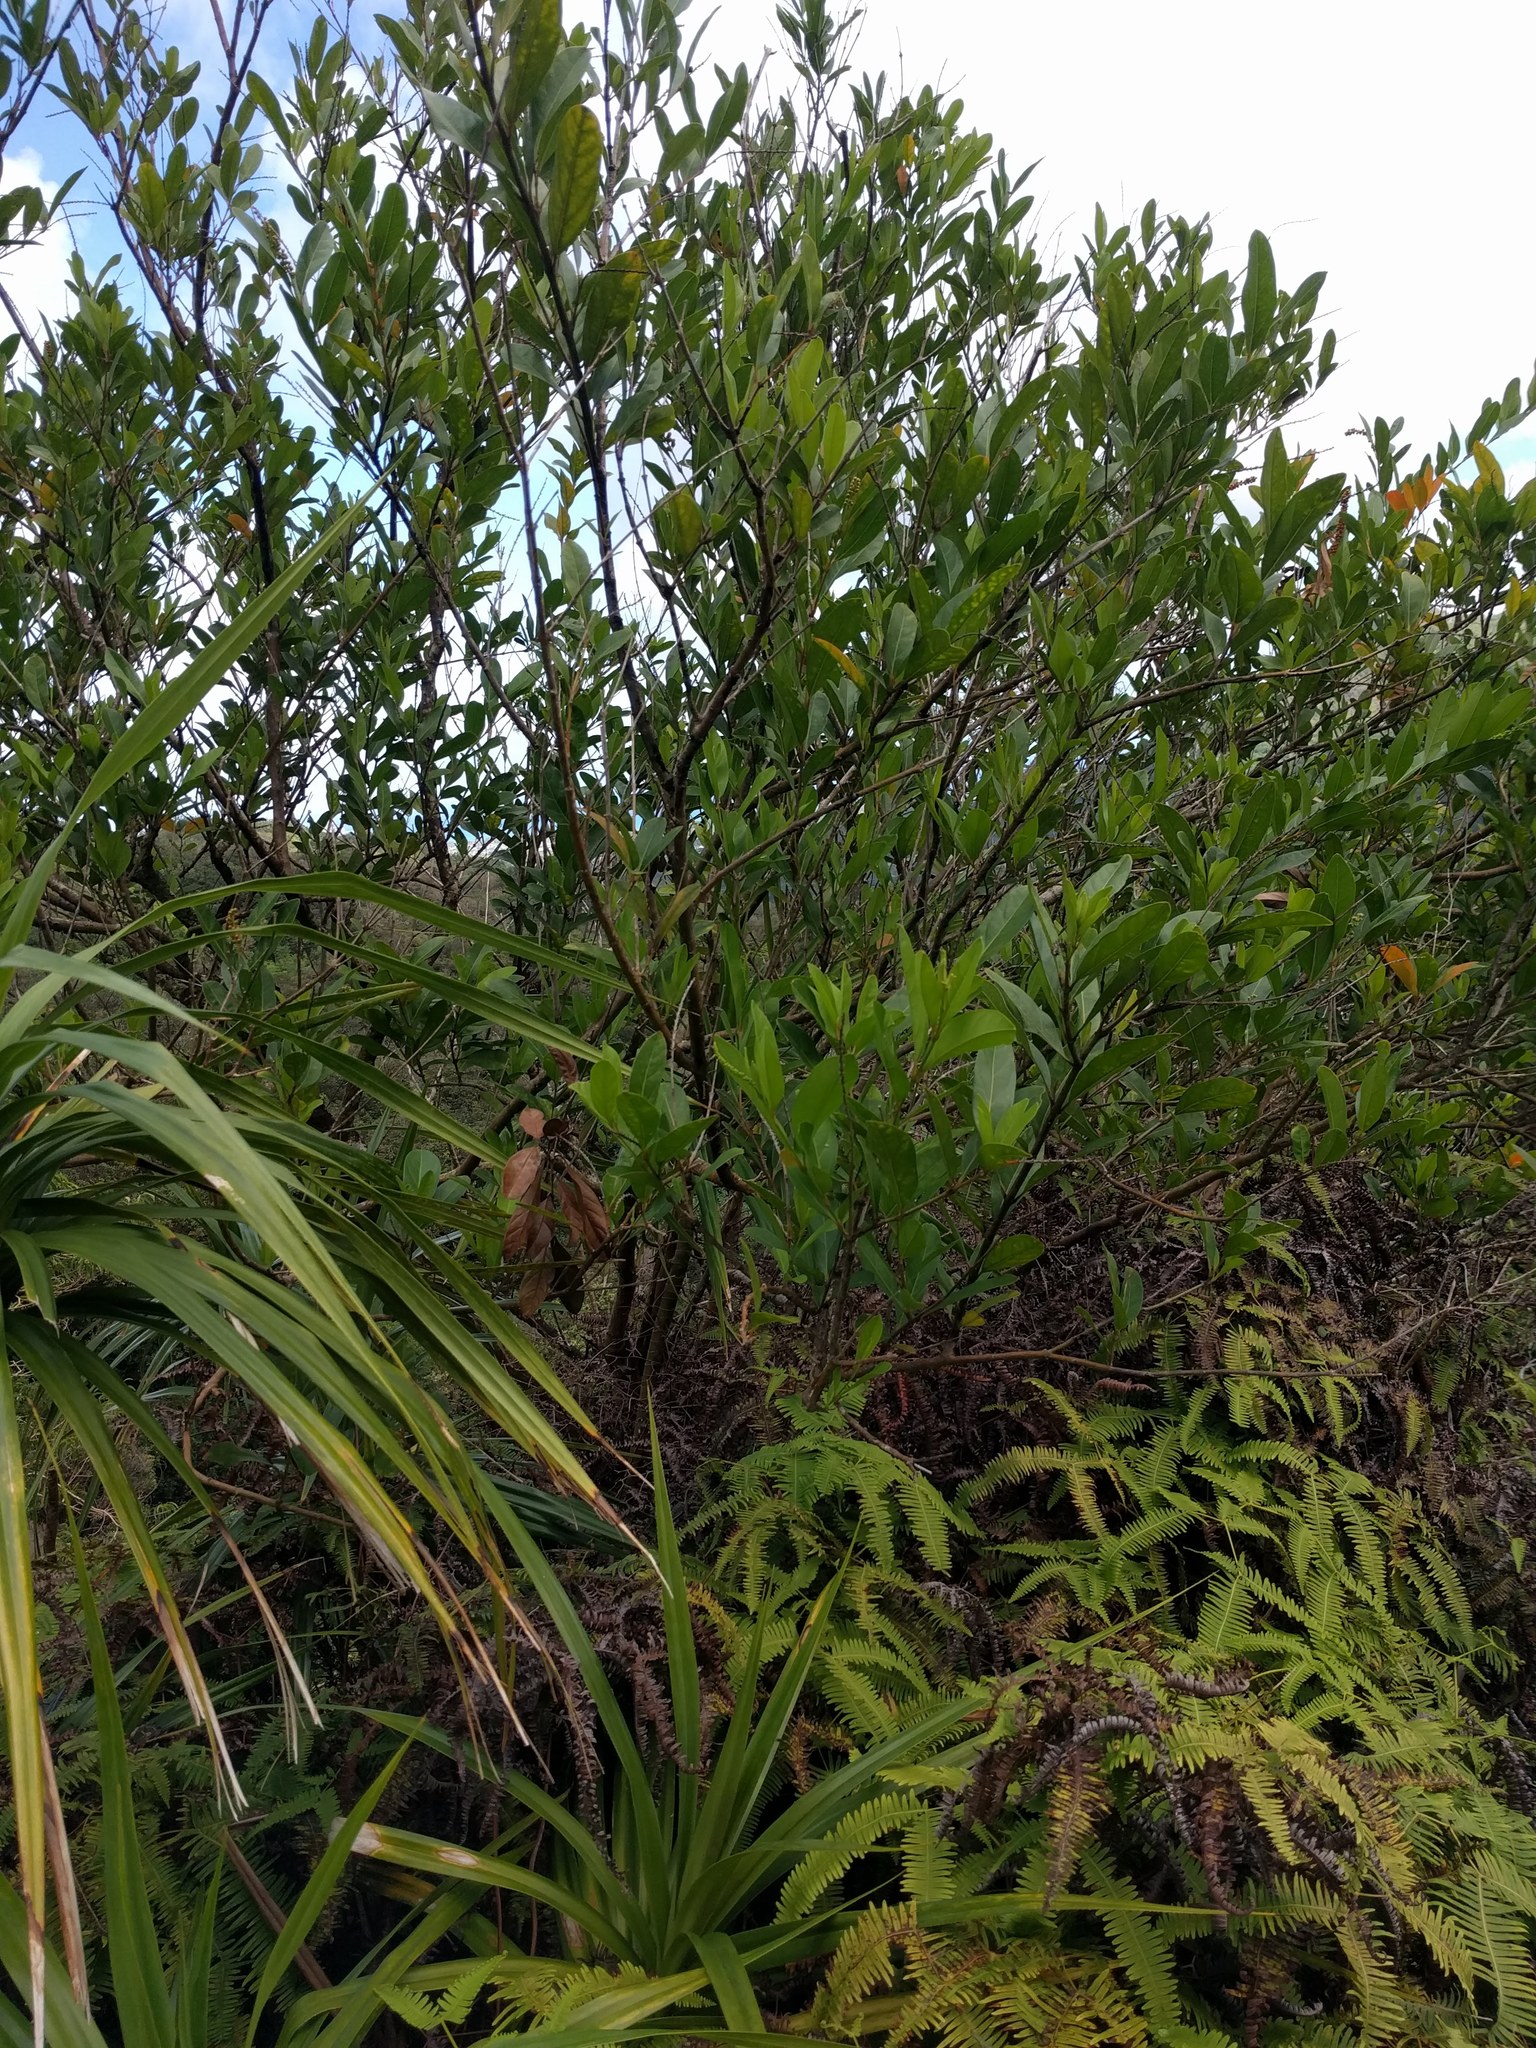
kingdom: Plantae
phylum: Tracheophyta
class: Magnoliopsida
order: Lamiales
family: Verbenaceae
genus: Citharexylum
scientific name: Citharexylum caudatum
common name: Fiddlewood
